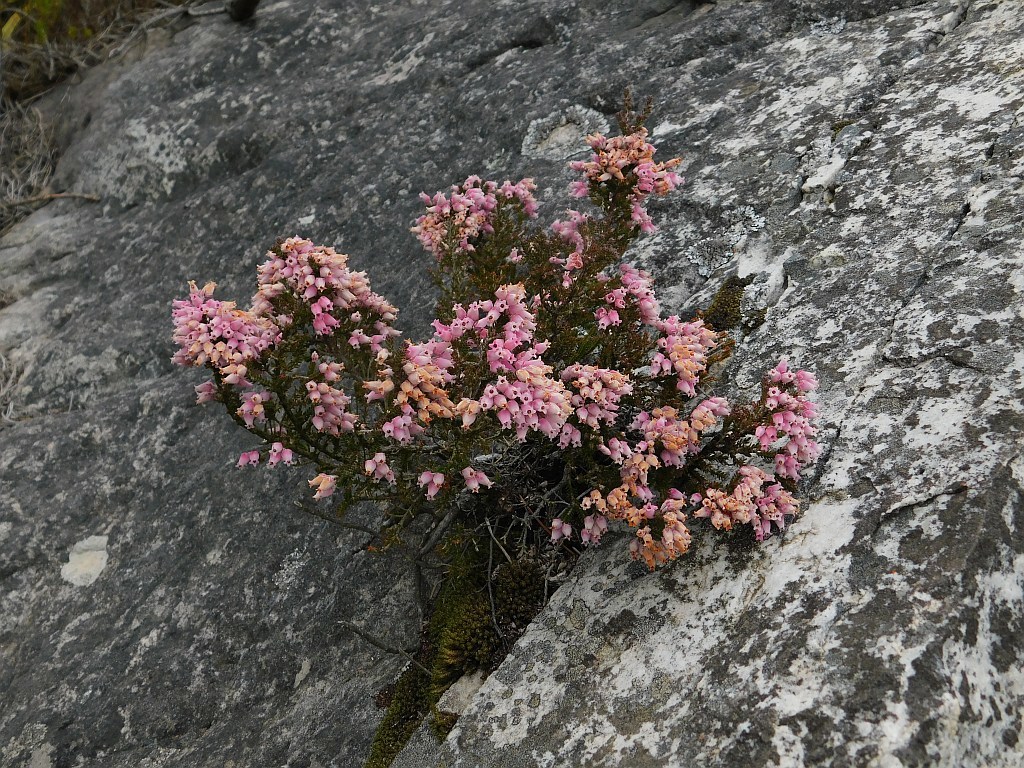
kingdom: Plantae
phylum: Tracheophyta
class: Magnoliopsida
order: Ericales
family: Ericaceae
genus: Erica
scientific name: Erica modesta
